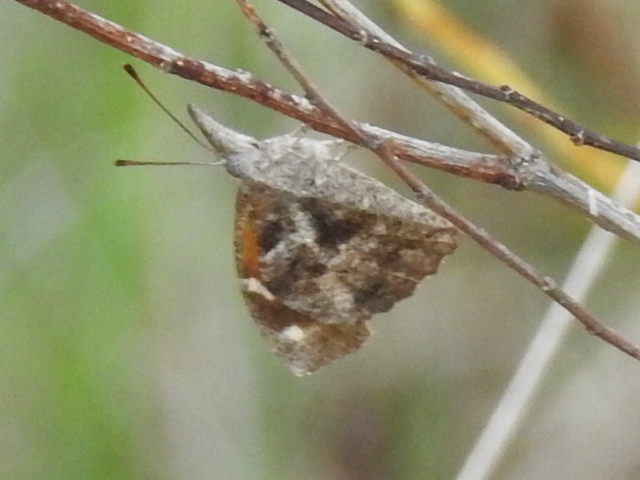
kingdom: Animalia
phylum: Arthropoda
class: Insecta
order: Lepidoptera
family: Nymphalidae
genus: Libytheana
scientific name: Libytheana carinenta
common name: American snout
